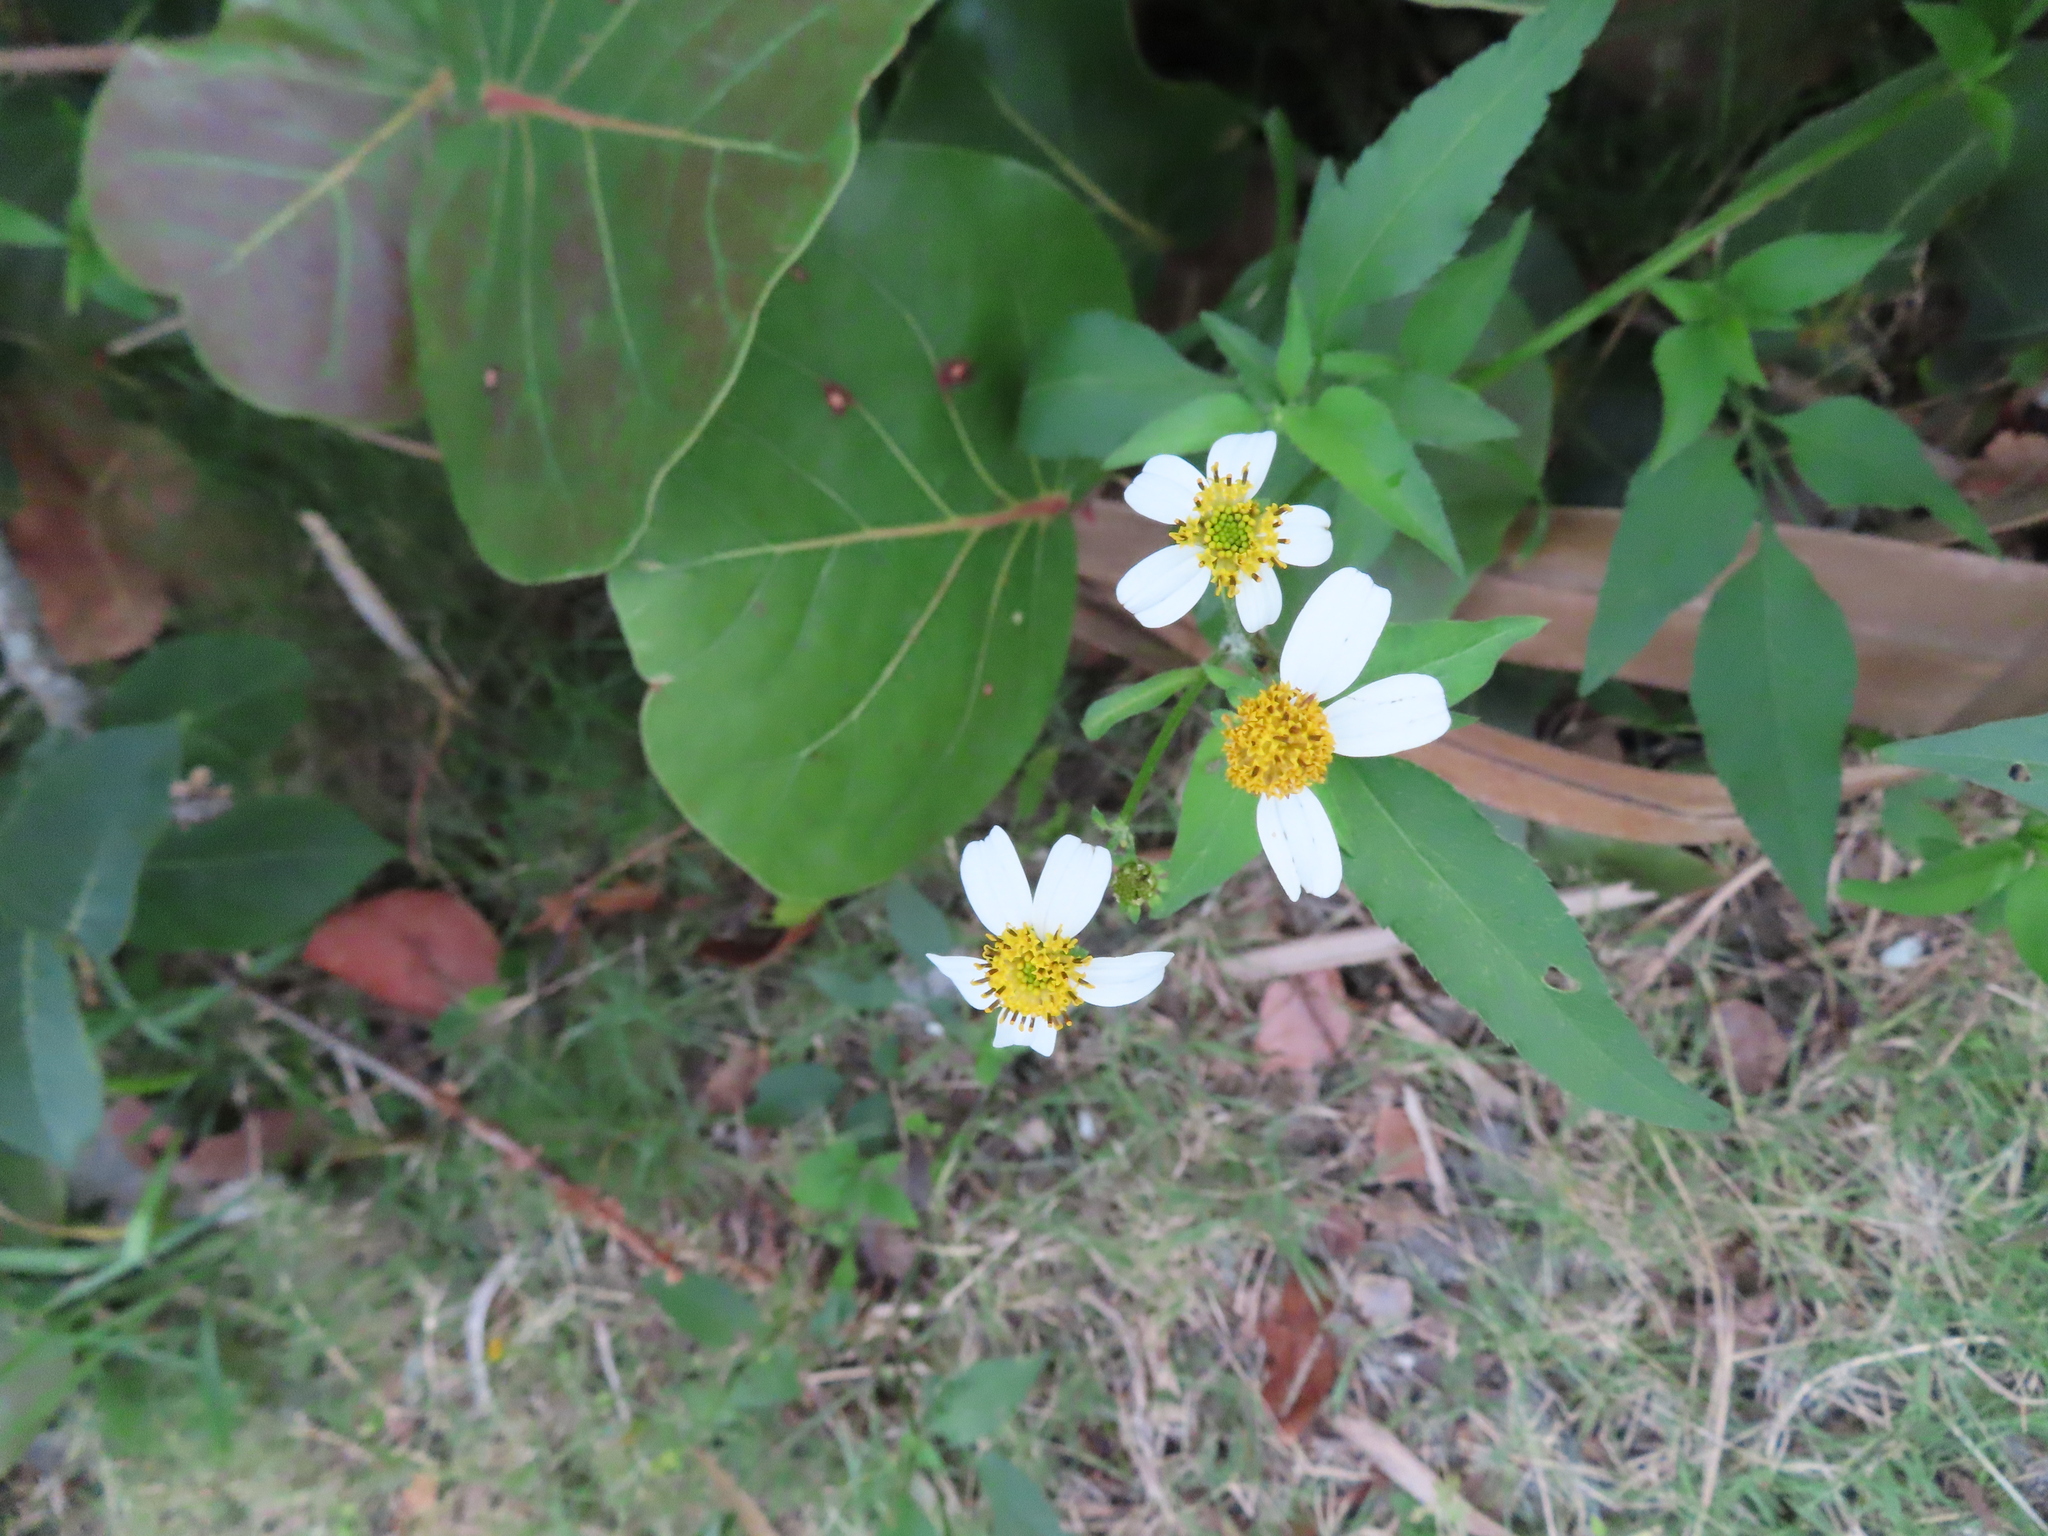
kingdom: Plantae
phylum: Tracheophyta
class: Magnoliopsida
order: Asterales
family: Asteraceae
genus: Bidens
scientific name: Bidens alba
